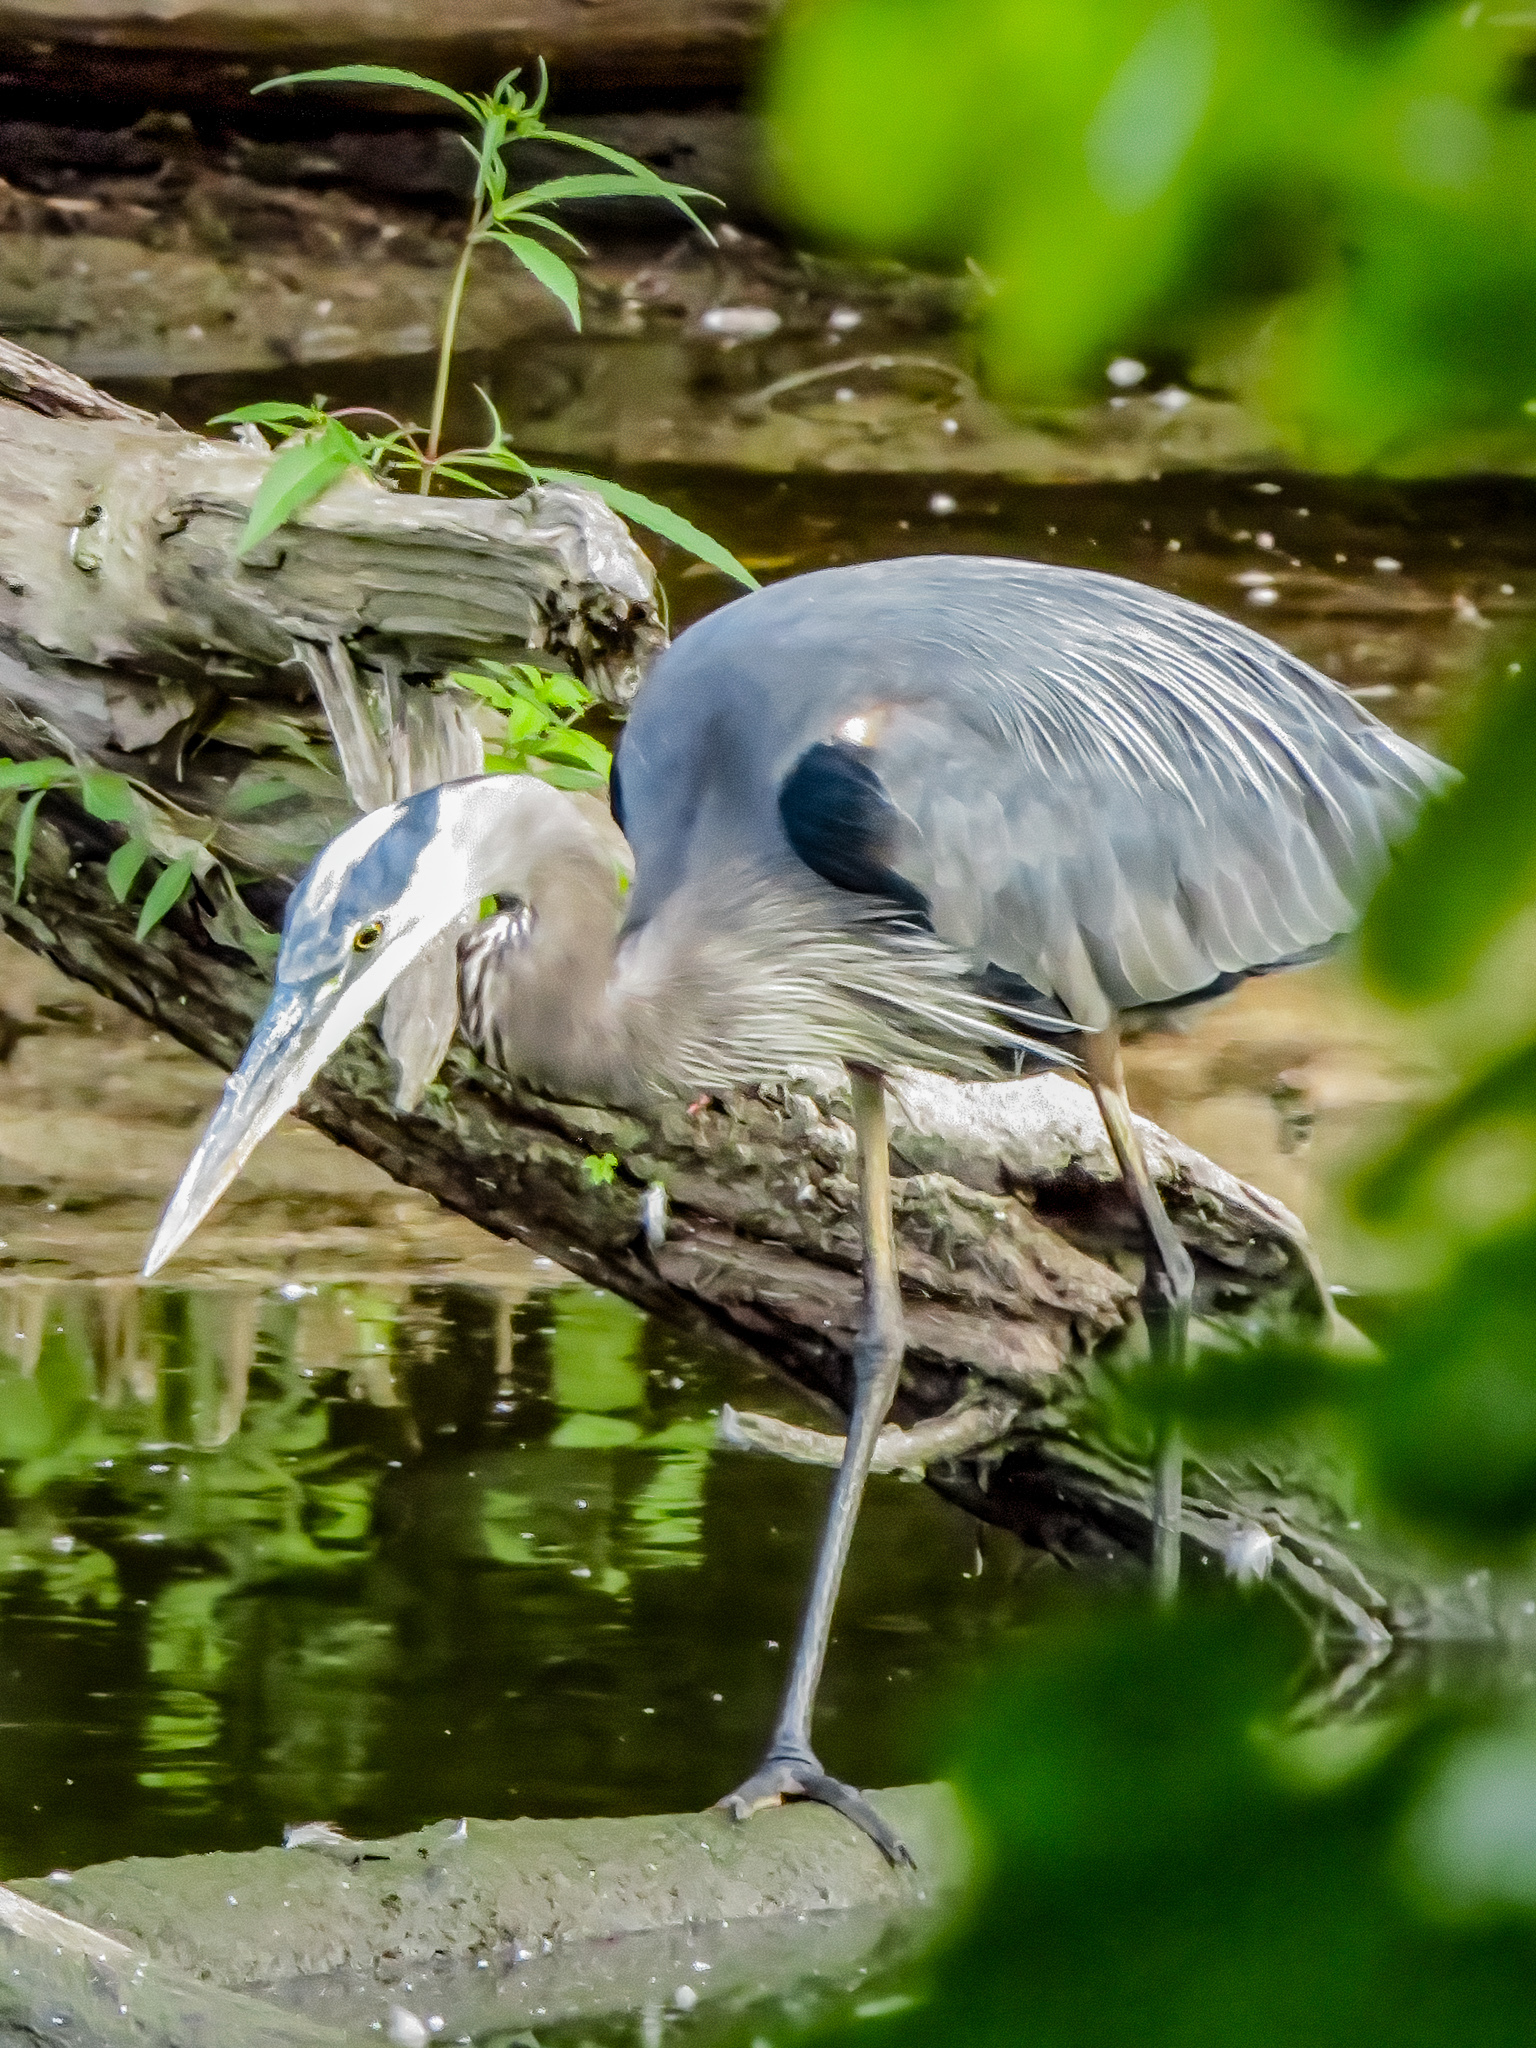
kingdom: Animalia
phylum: Chordata
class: Aves
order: Pelecaniformes
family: Ardeidae
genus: Ardea
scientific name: Ardea herodias
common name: Great blue heron
